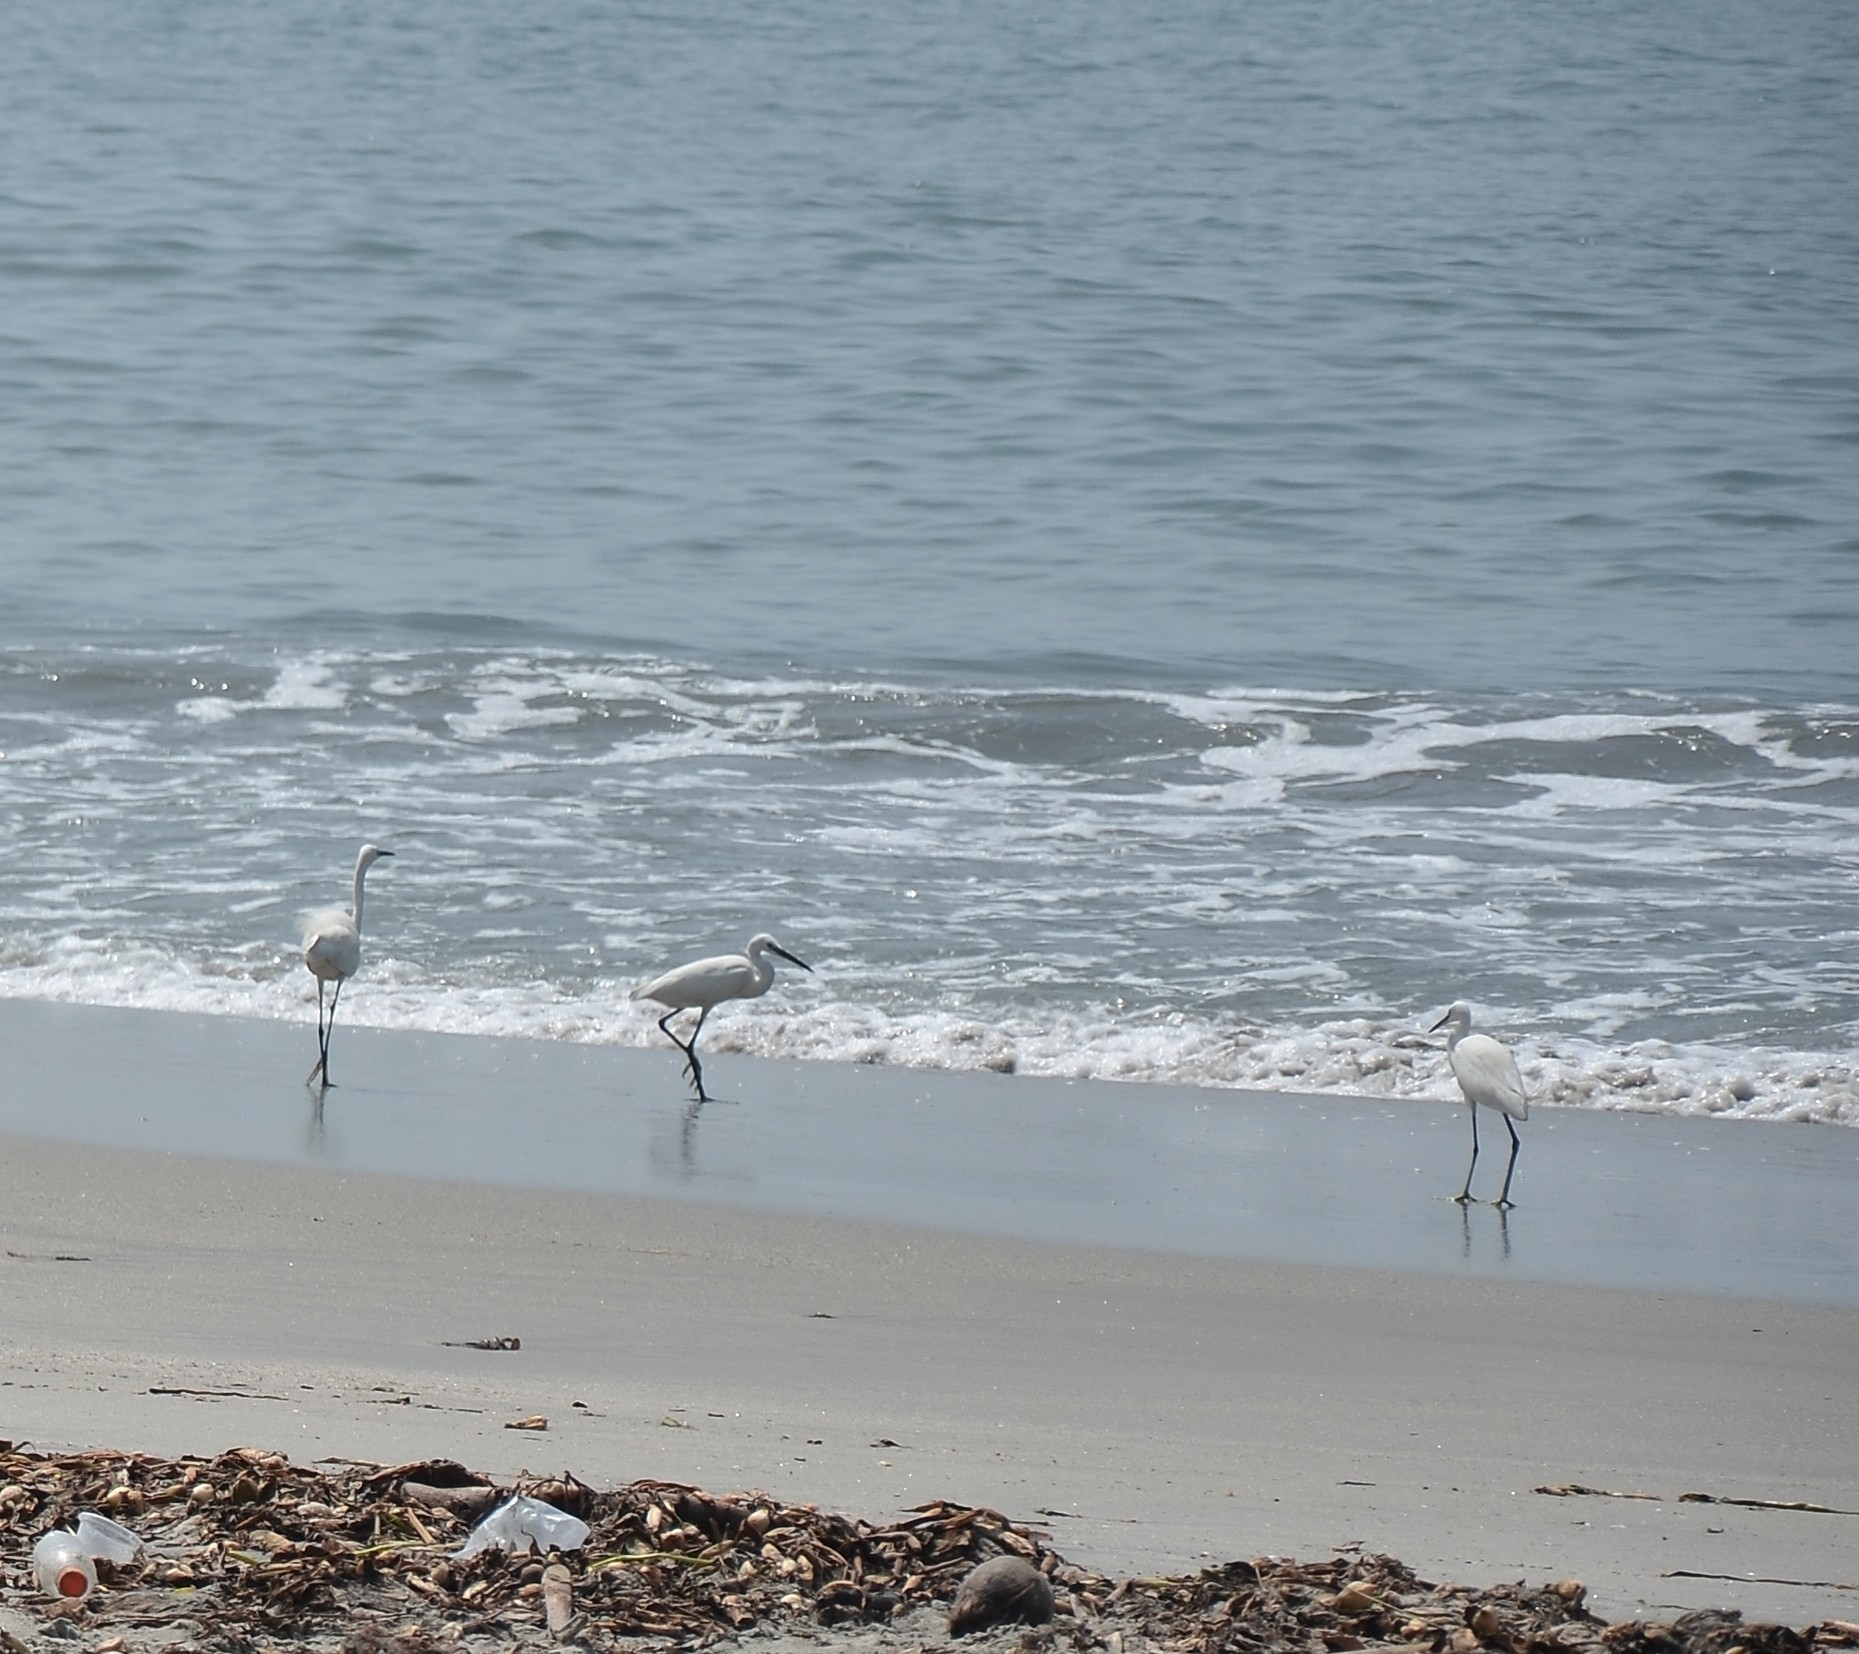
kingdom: Animalia
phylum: Chordata
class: Aves
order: Pelecaniformes
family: Ardeidae
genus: Egretta
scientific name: Egretta garzetta
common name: Little egret
